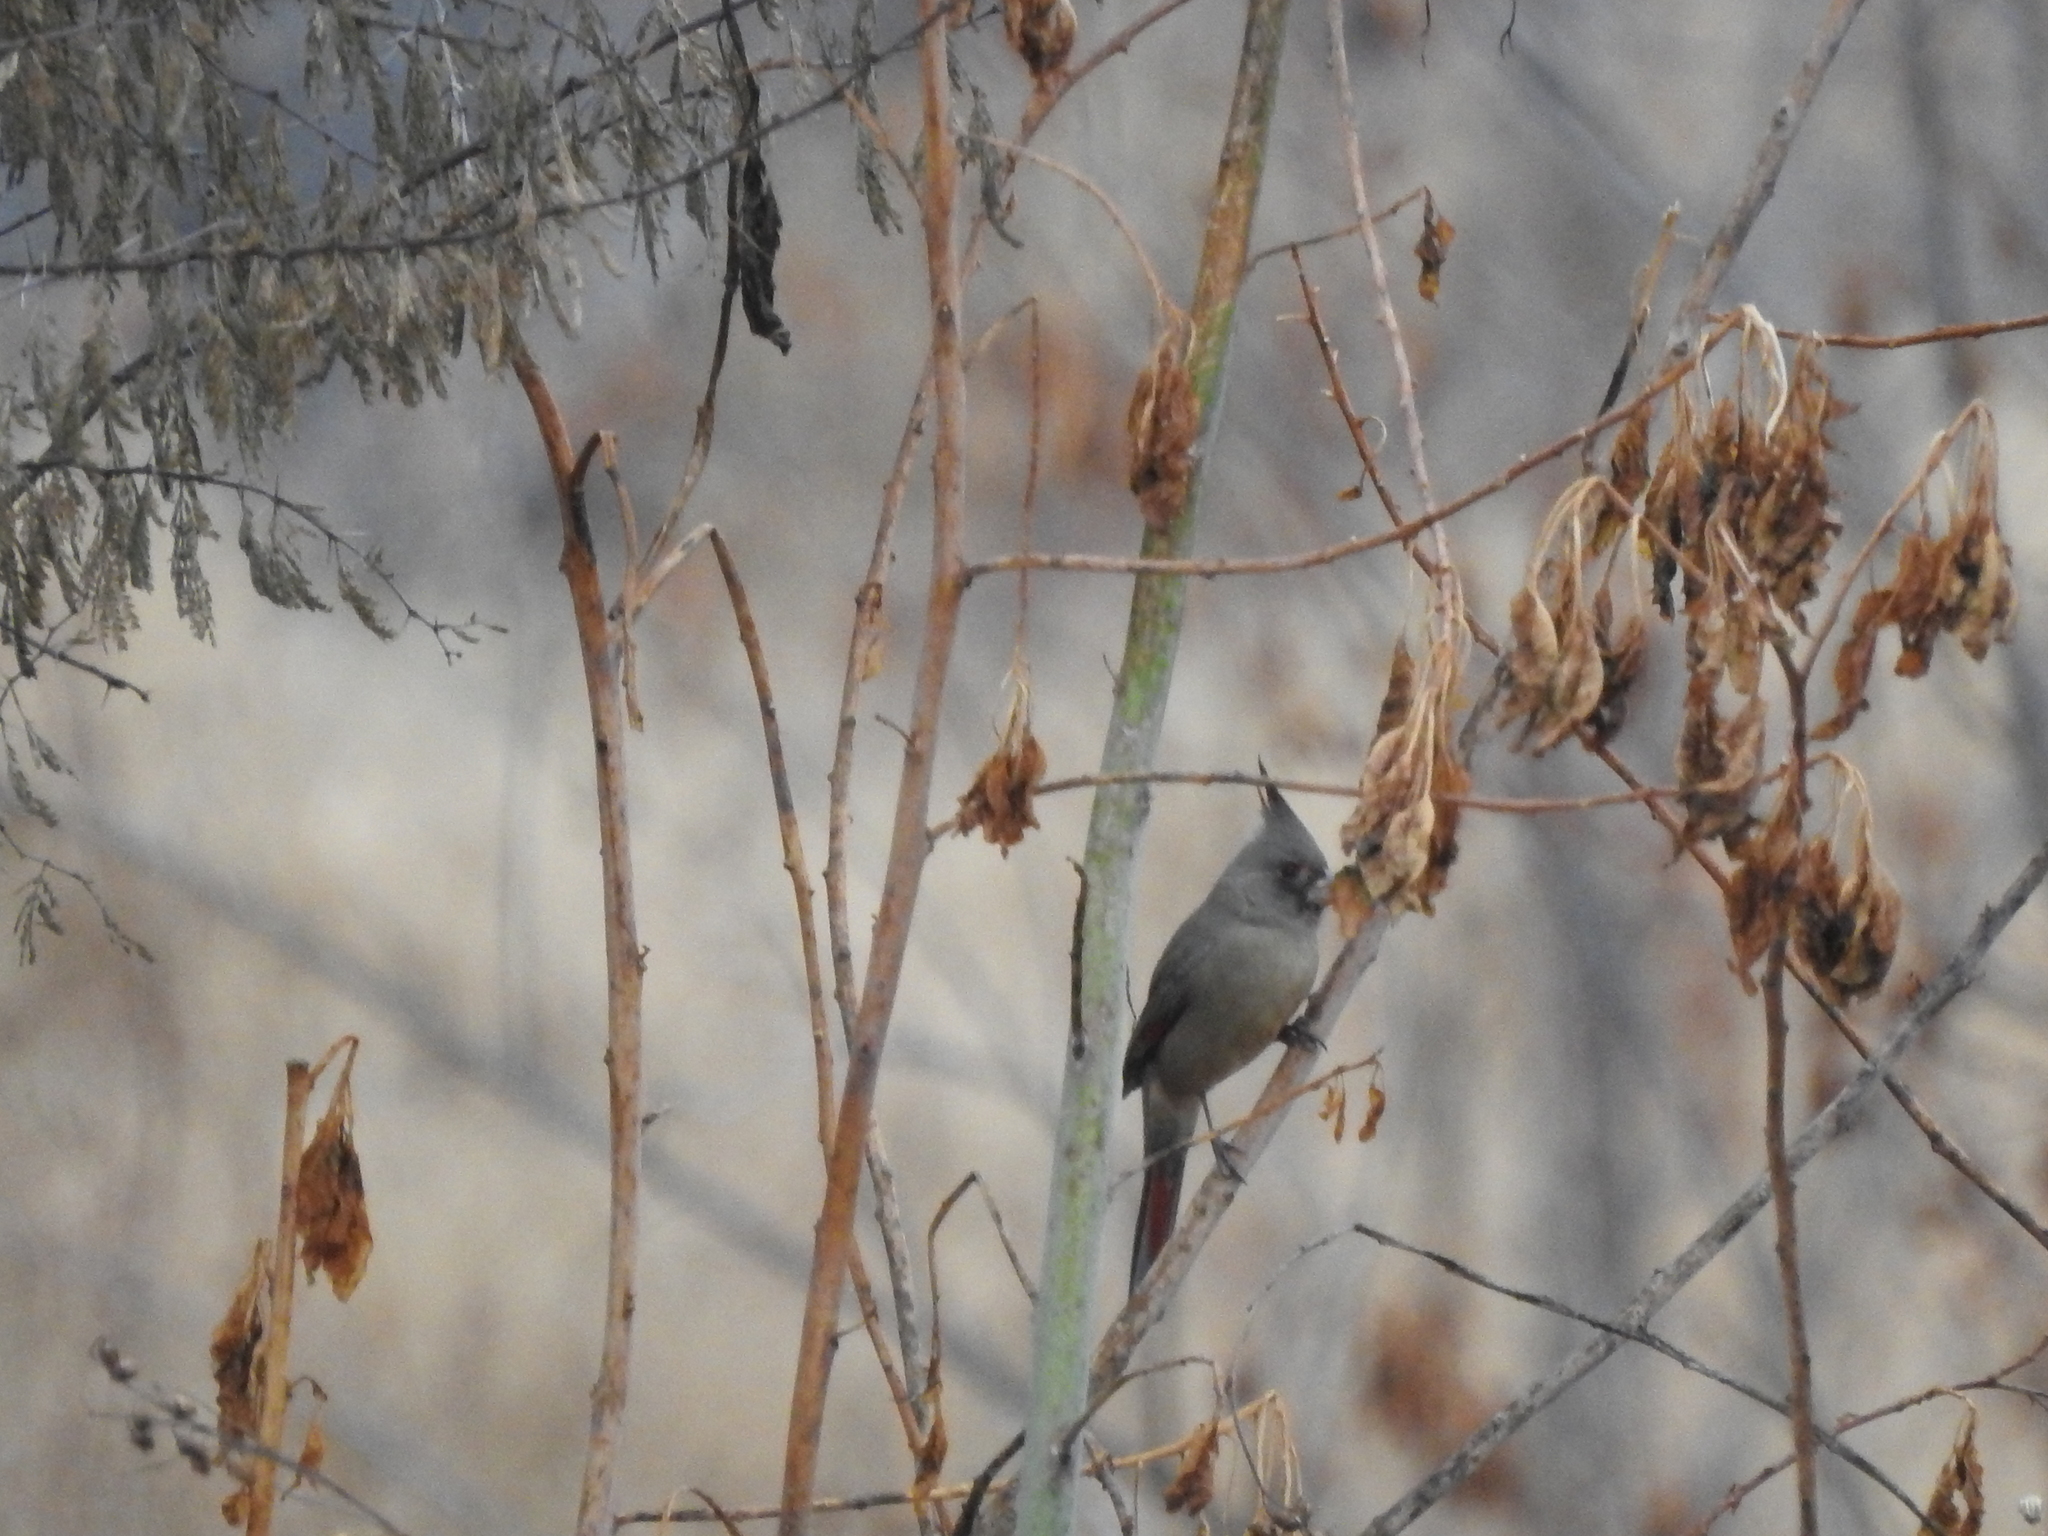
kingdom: Animalia
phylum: Chordata
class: Aves
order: Passeriformes
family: Cardinalidae
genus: Cardinalis
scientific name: Cardinalis sinuatus
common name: Pyrrhuloxia
